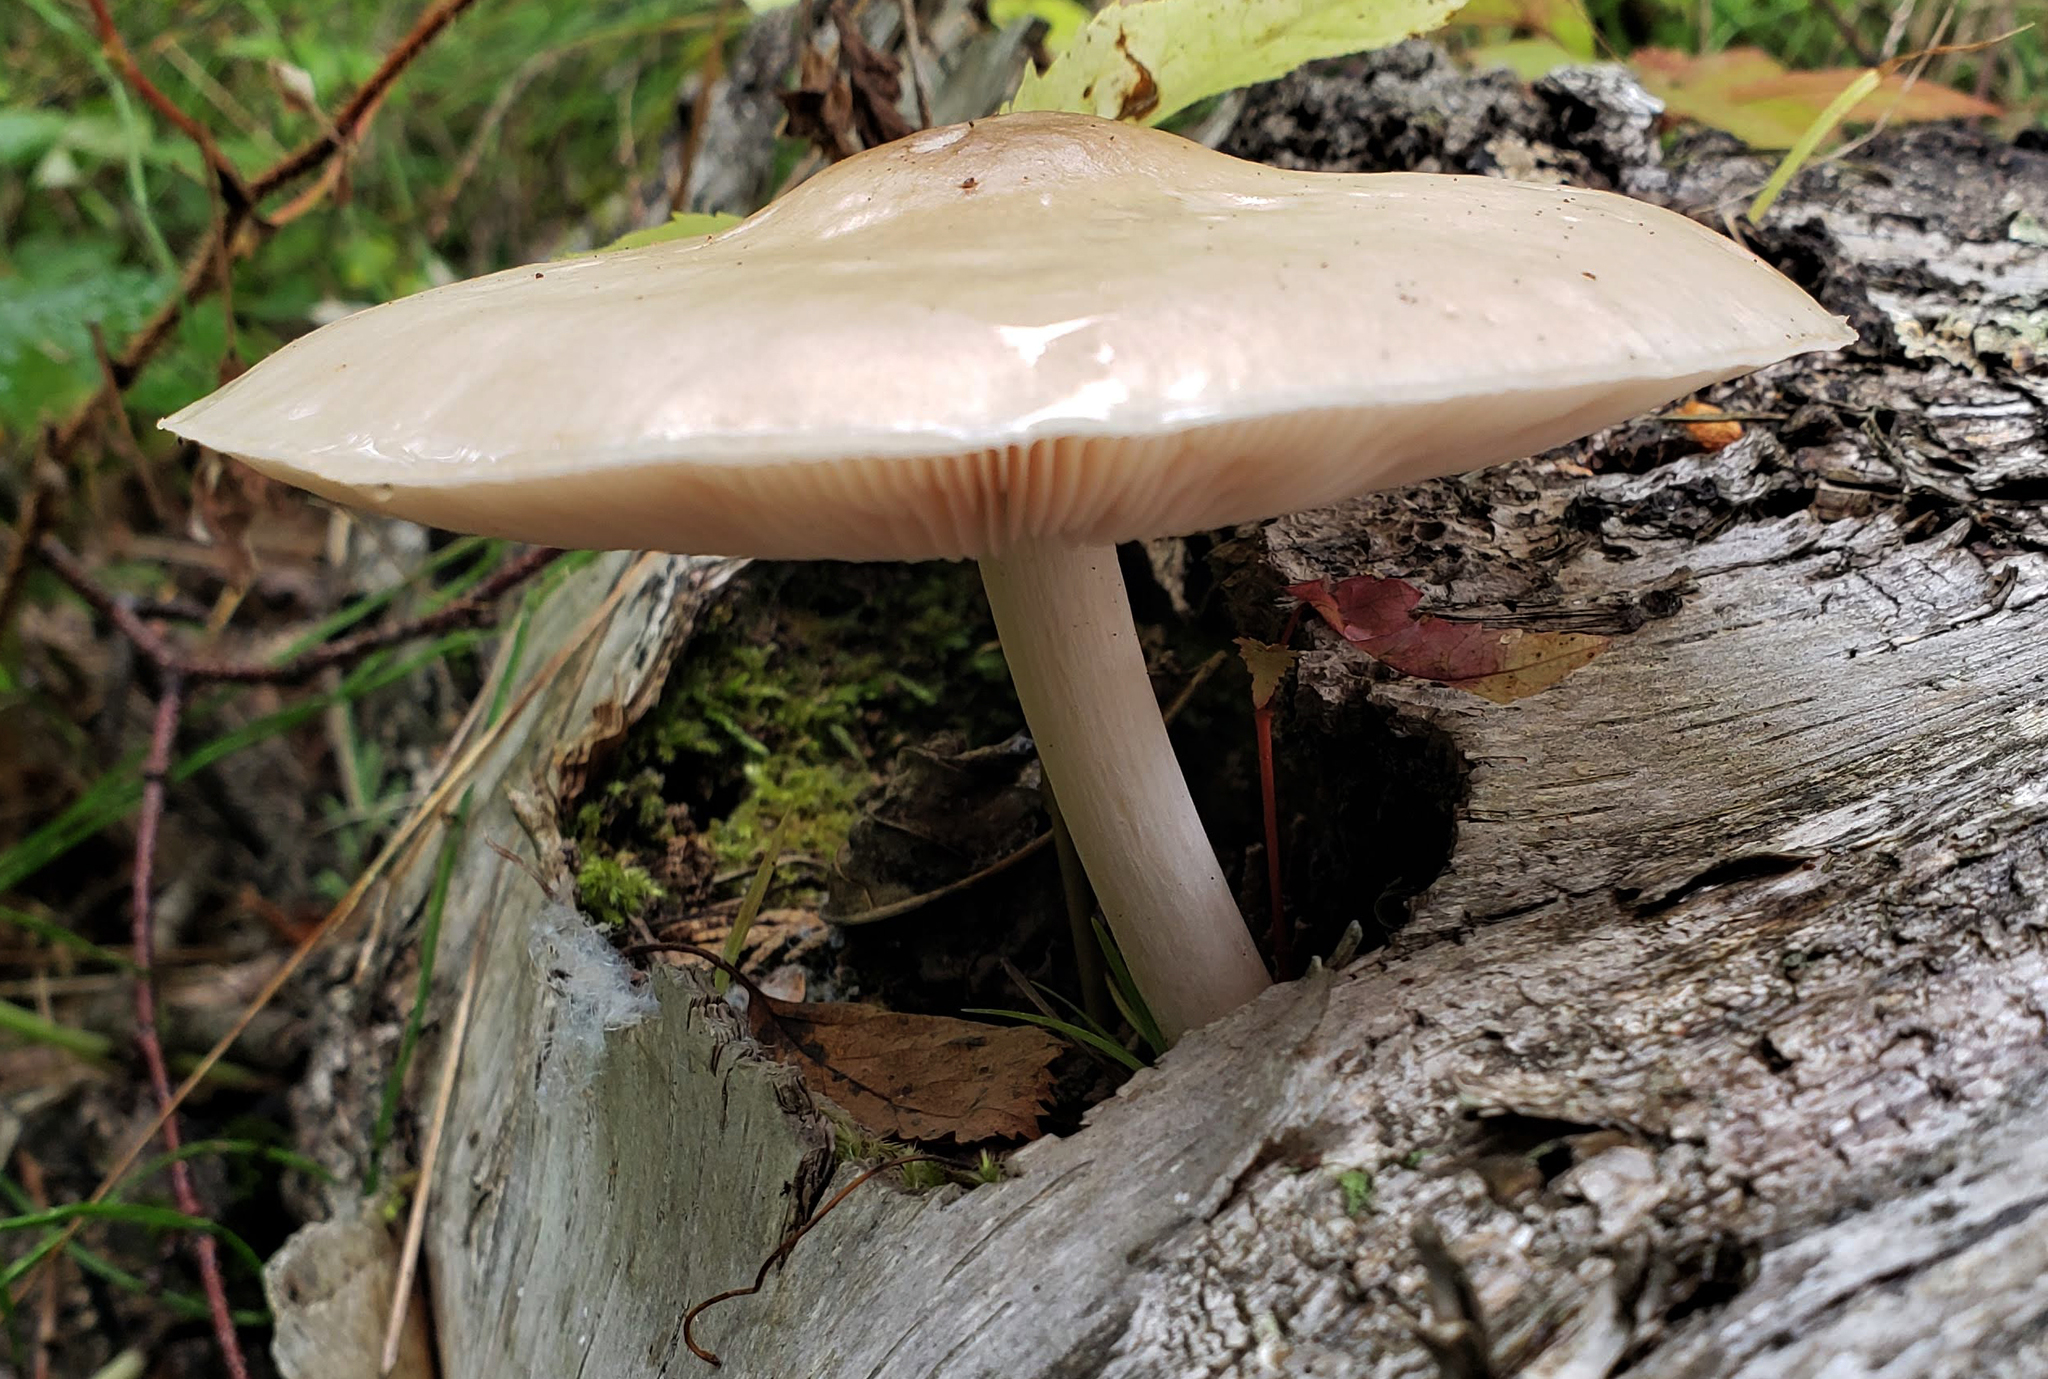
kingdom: Fungi
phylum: Basidiomycota
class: Agaricomycetes
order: Agaricales
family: Pluteaceae
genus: Pluteus
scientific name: Pluteus cervinus
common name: Deer shield
